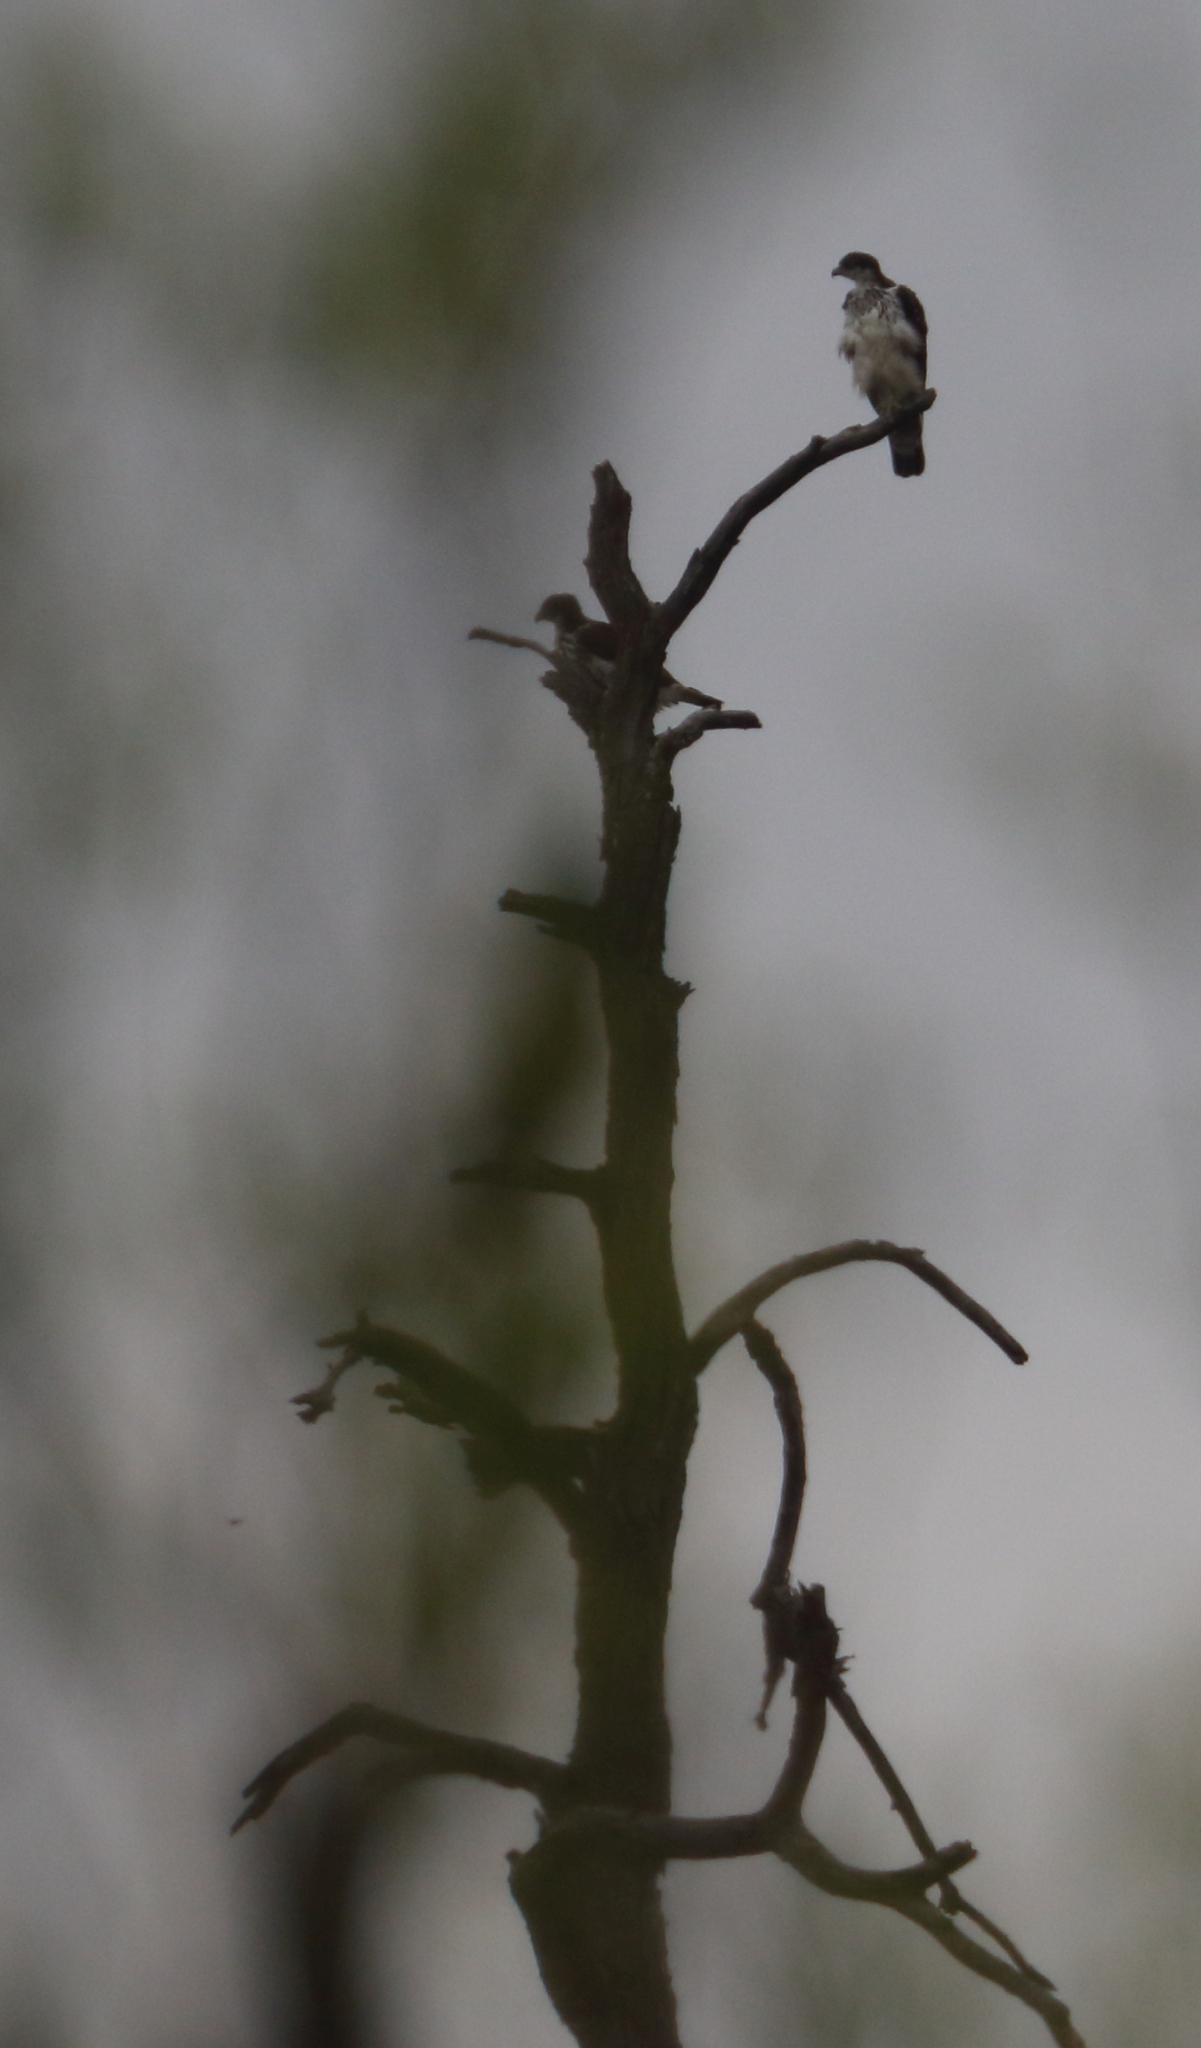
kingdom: Animalia
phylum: Chordata
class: Aves
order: Accipitriformes
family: Accipitridae
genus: Aquila
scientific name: Aquila spilogaster
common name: African hawk-eagle
